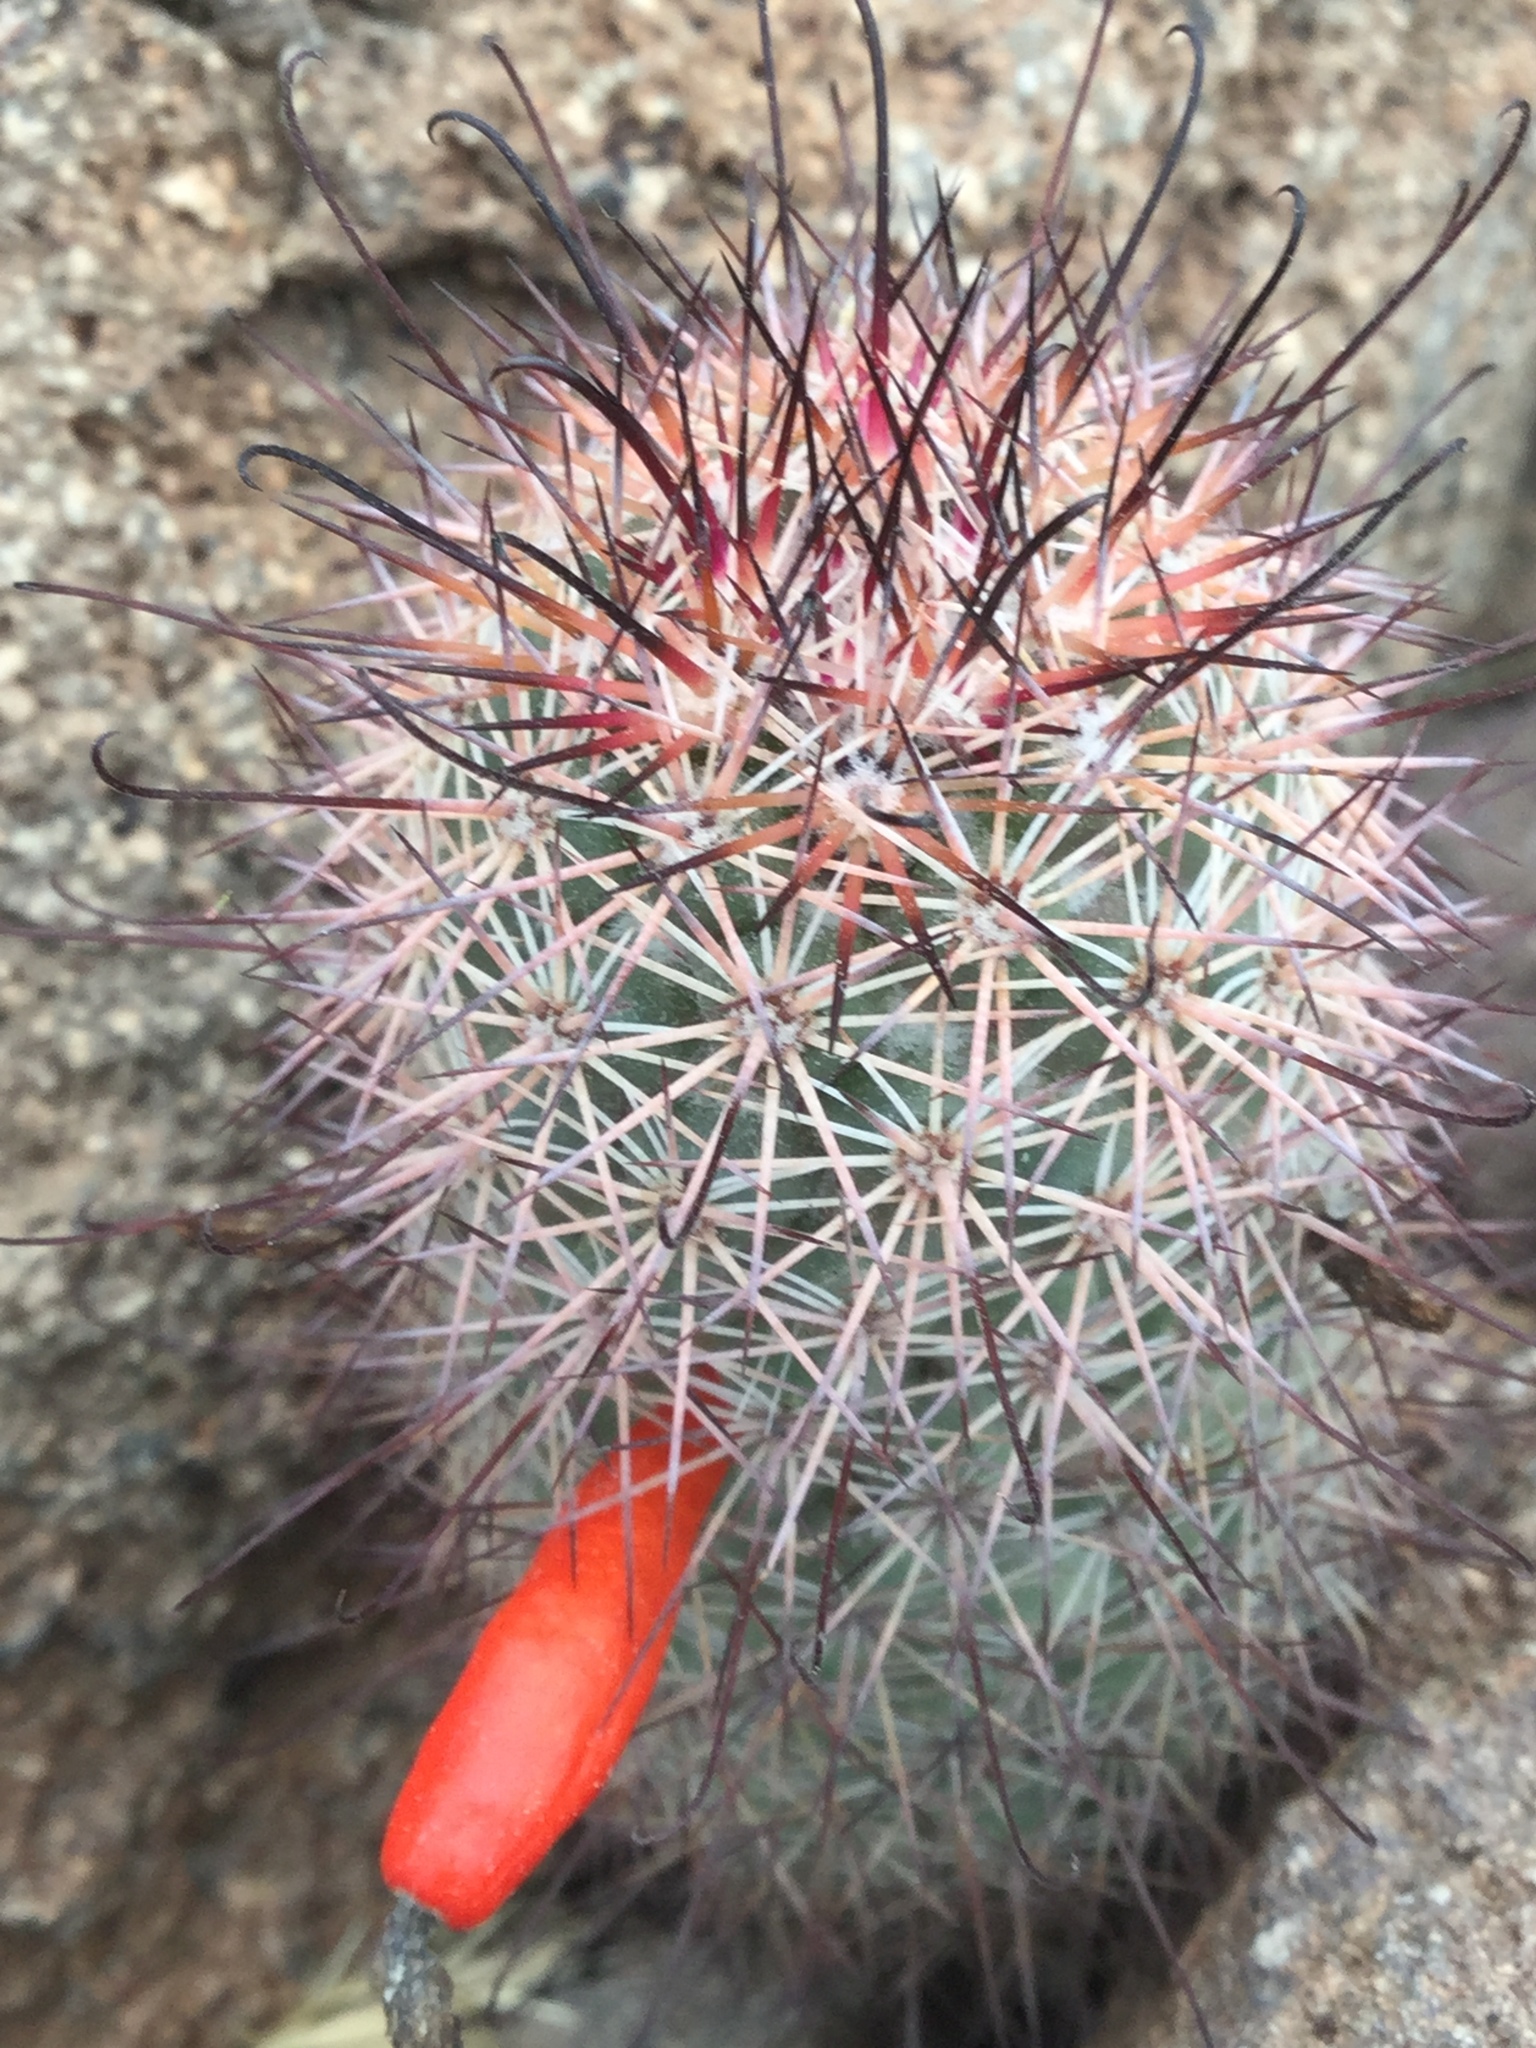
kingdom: Plantae
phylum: Tracheophyta
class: Magnoliopsida
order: Caryophyllales
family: Cactaceae
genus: Cochemiea
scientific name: Cochemiea fraileana
